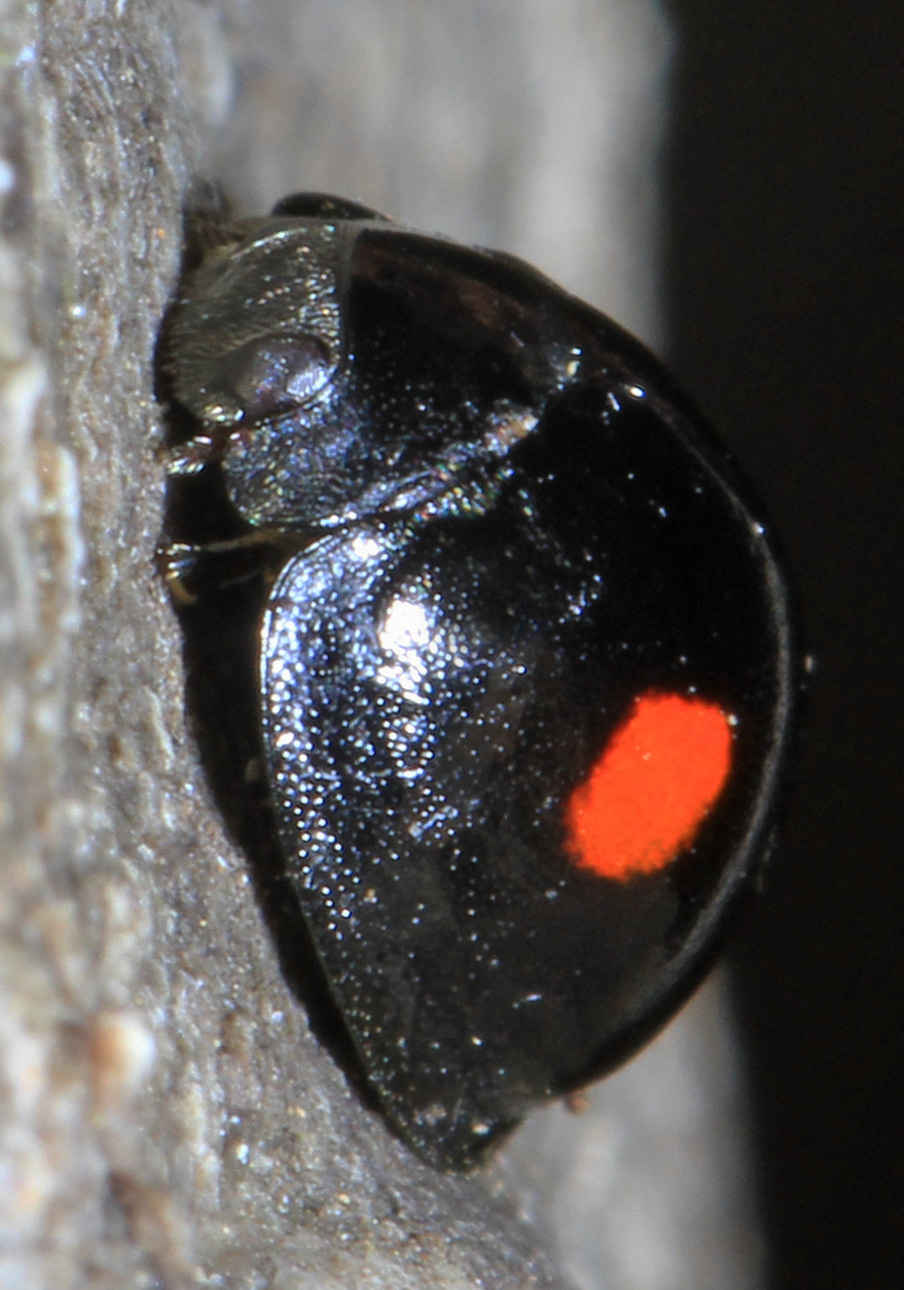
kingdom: Animalia
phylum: Arthropoda
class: Insecta
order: Coleoptera
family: Coccinellidae
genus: Chilocorus
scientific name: Chilocorus stigma
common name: Twicestabbed lady beetle
